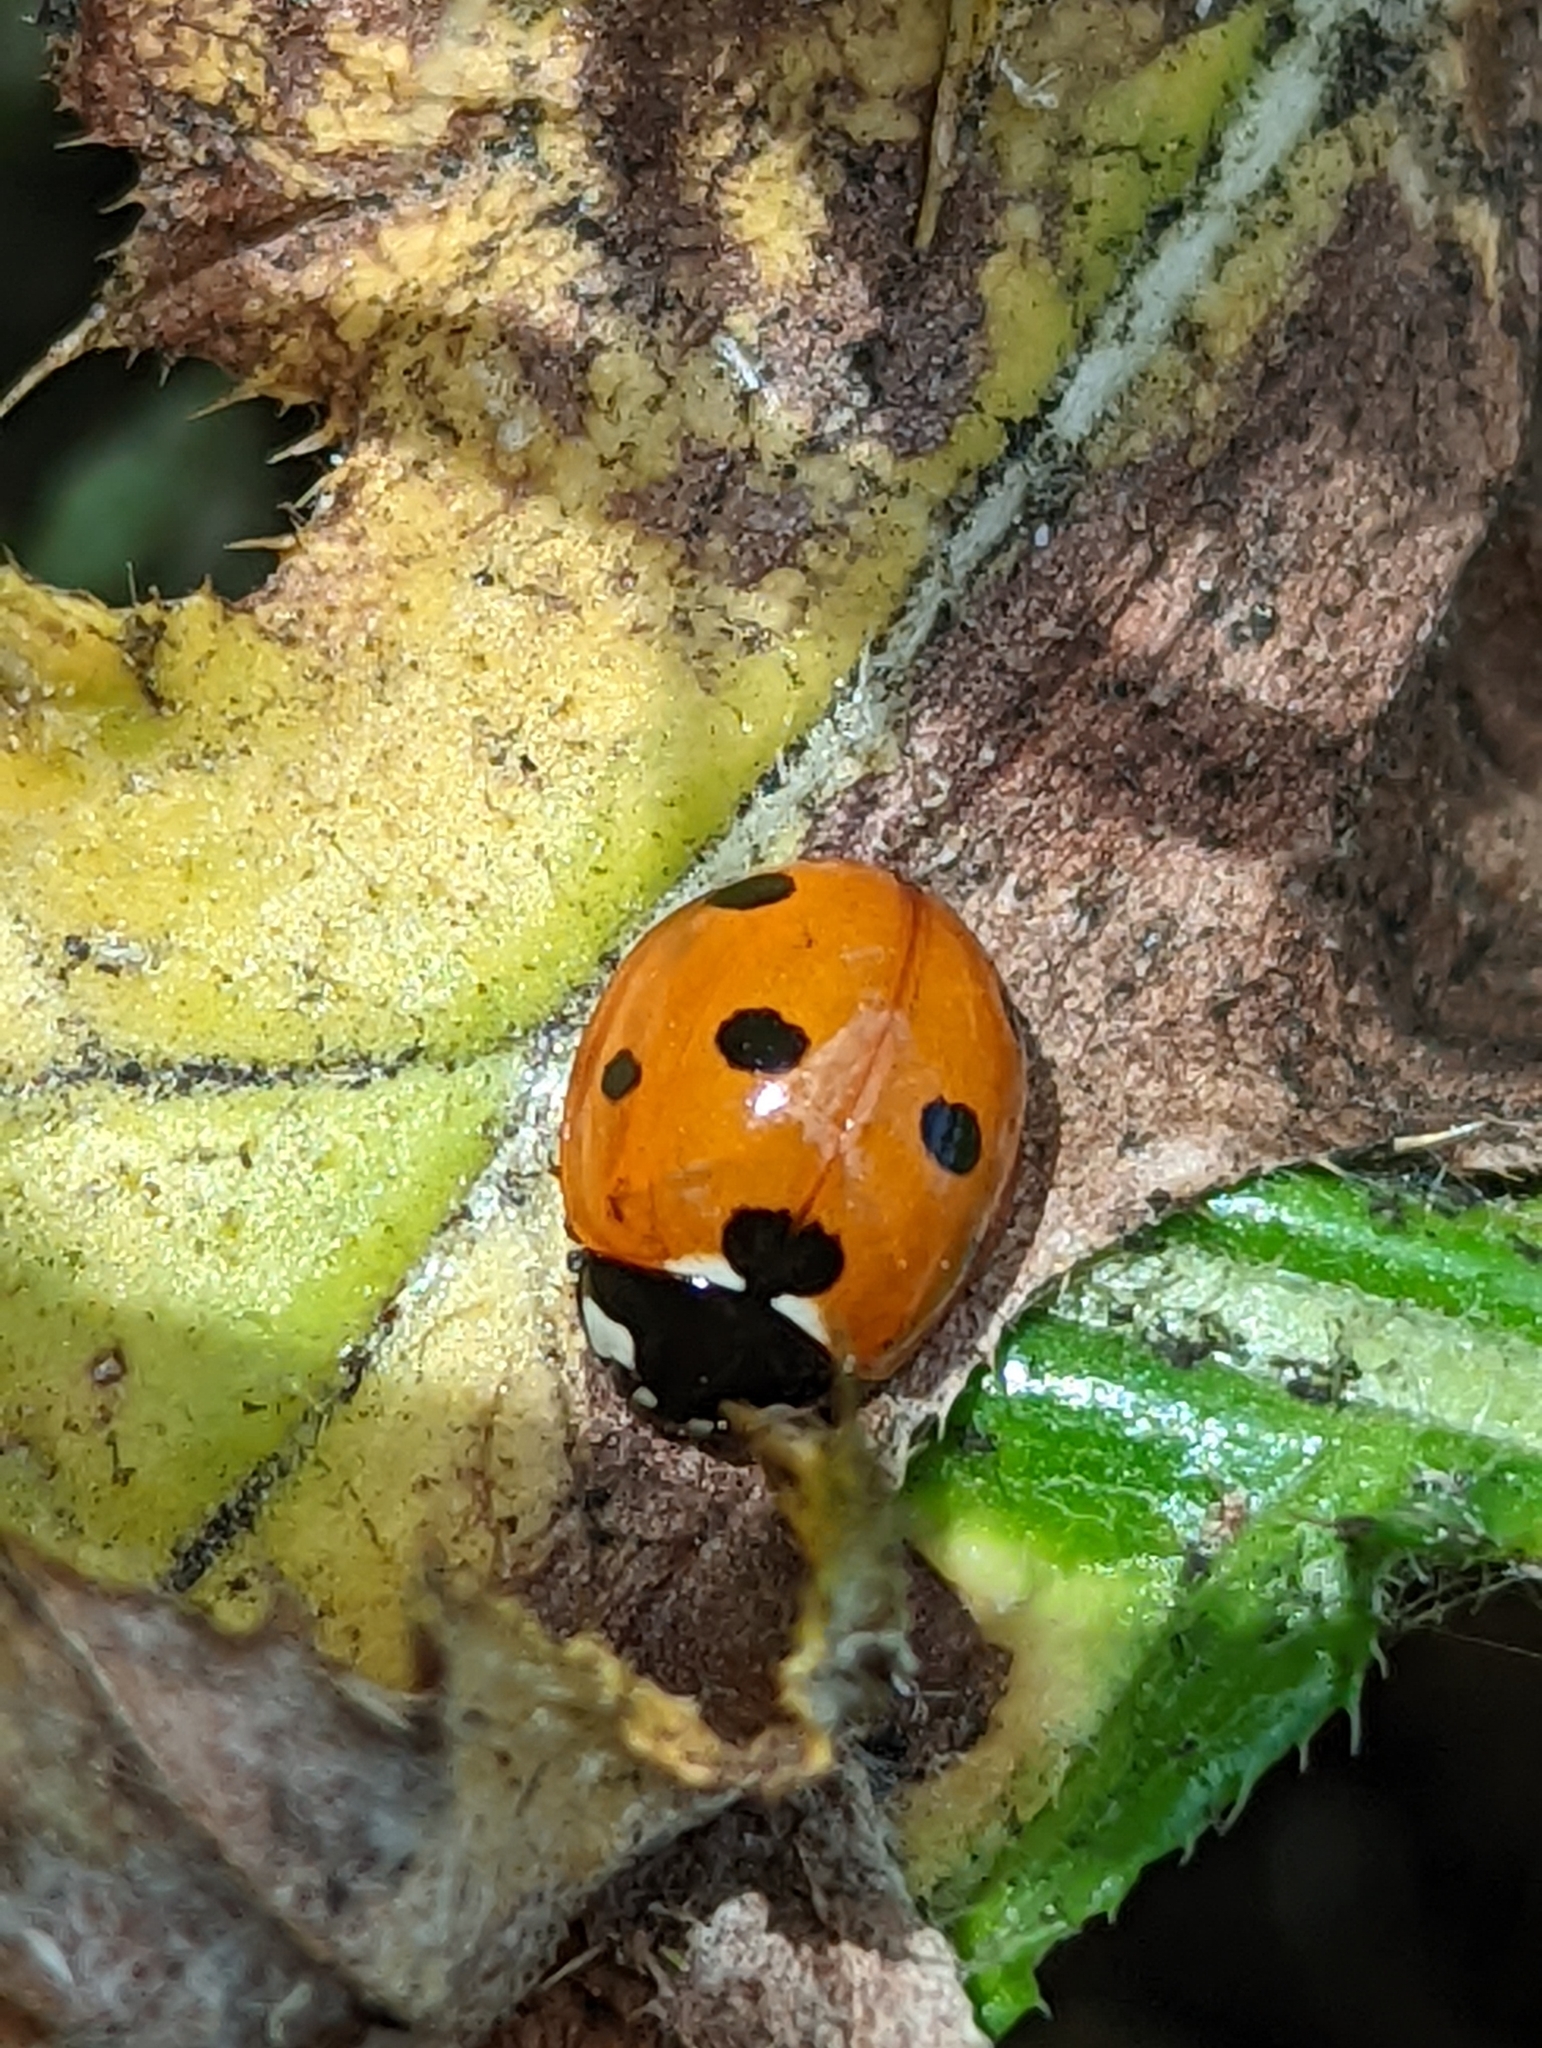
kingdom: Animalia
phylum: Arthropoda
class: Insecta
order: Coleoptera
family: Coccinellidae
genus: Coccinella
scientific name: Coccinella septempunctata
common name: Sevenspotted lady beetle
